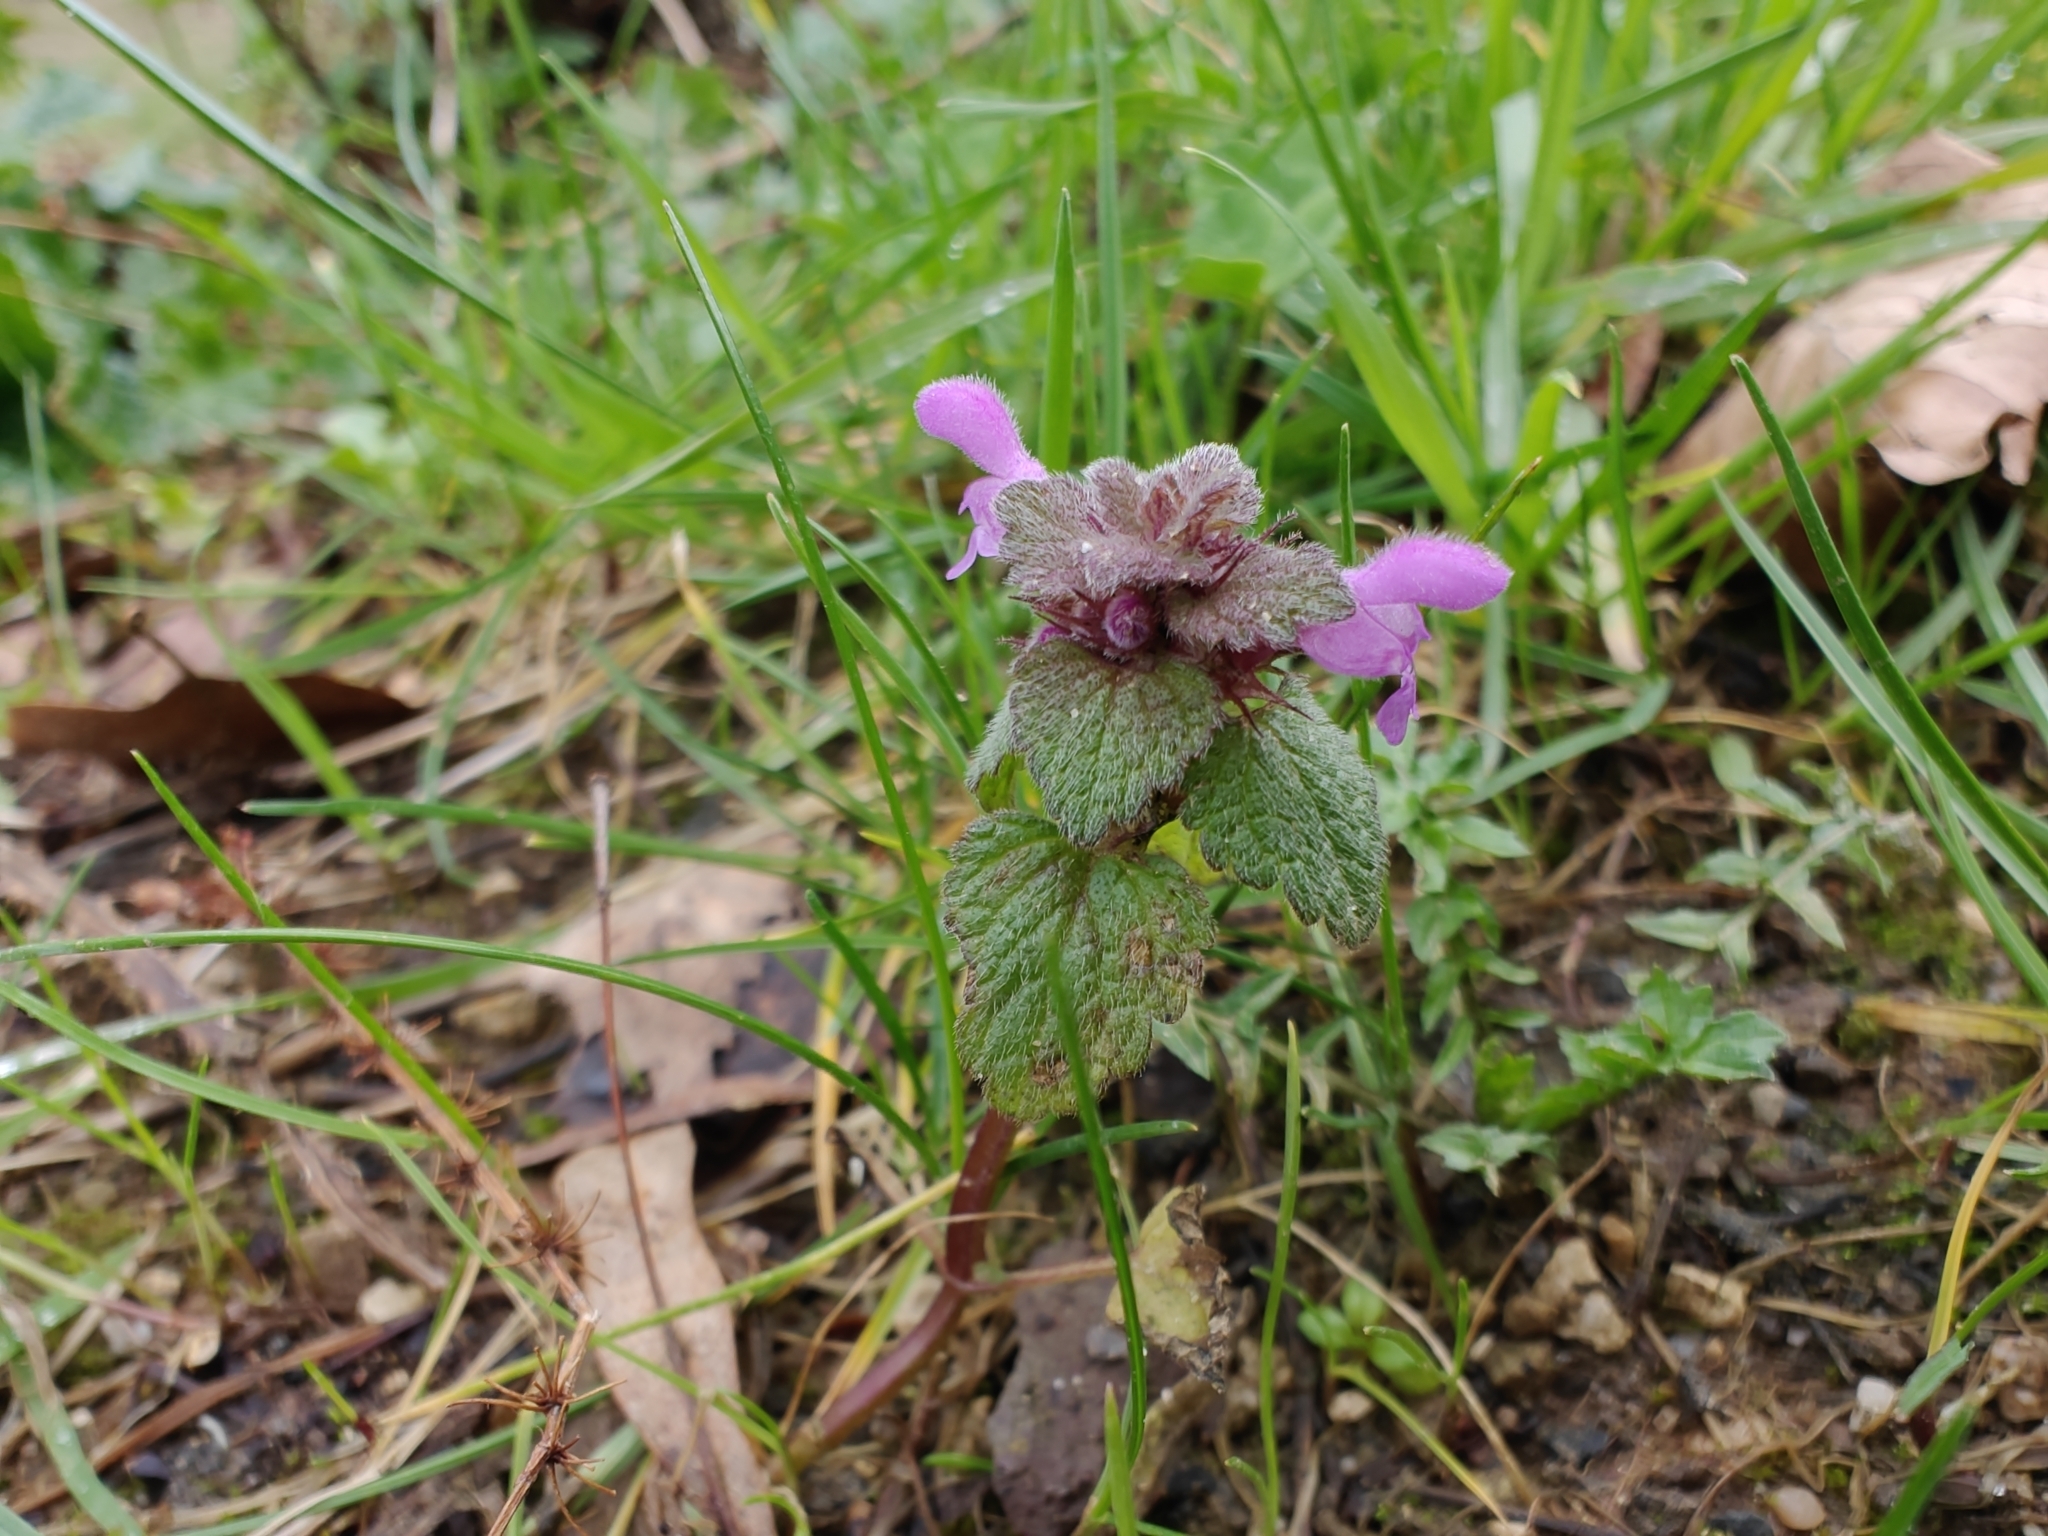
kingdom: Plantae
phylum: Tracheophyta
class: Magnoliopsida
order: Lamiales
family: Lamiaceae
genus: Lamium
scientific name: Lamium purpureum
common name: Red dead-nettle
